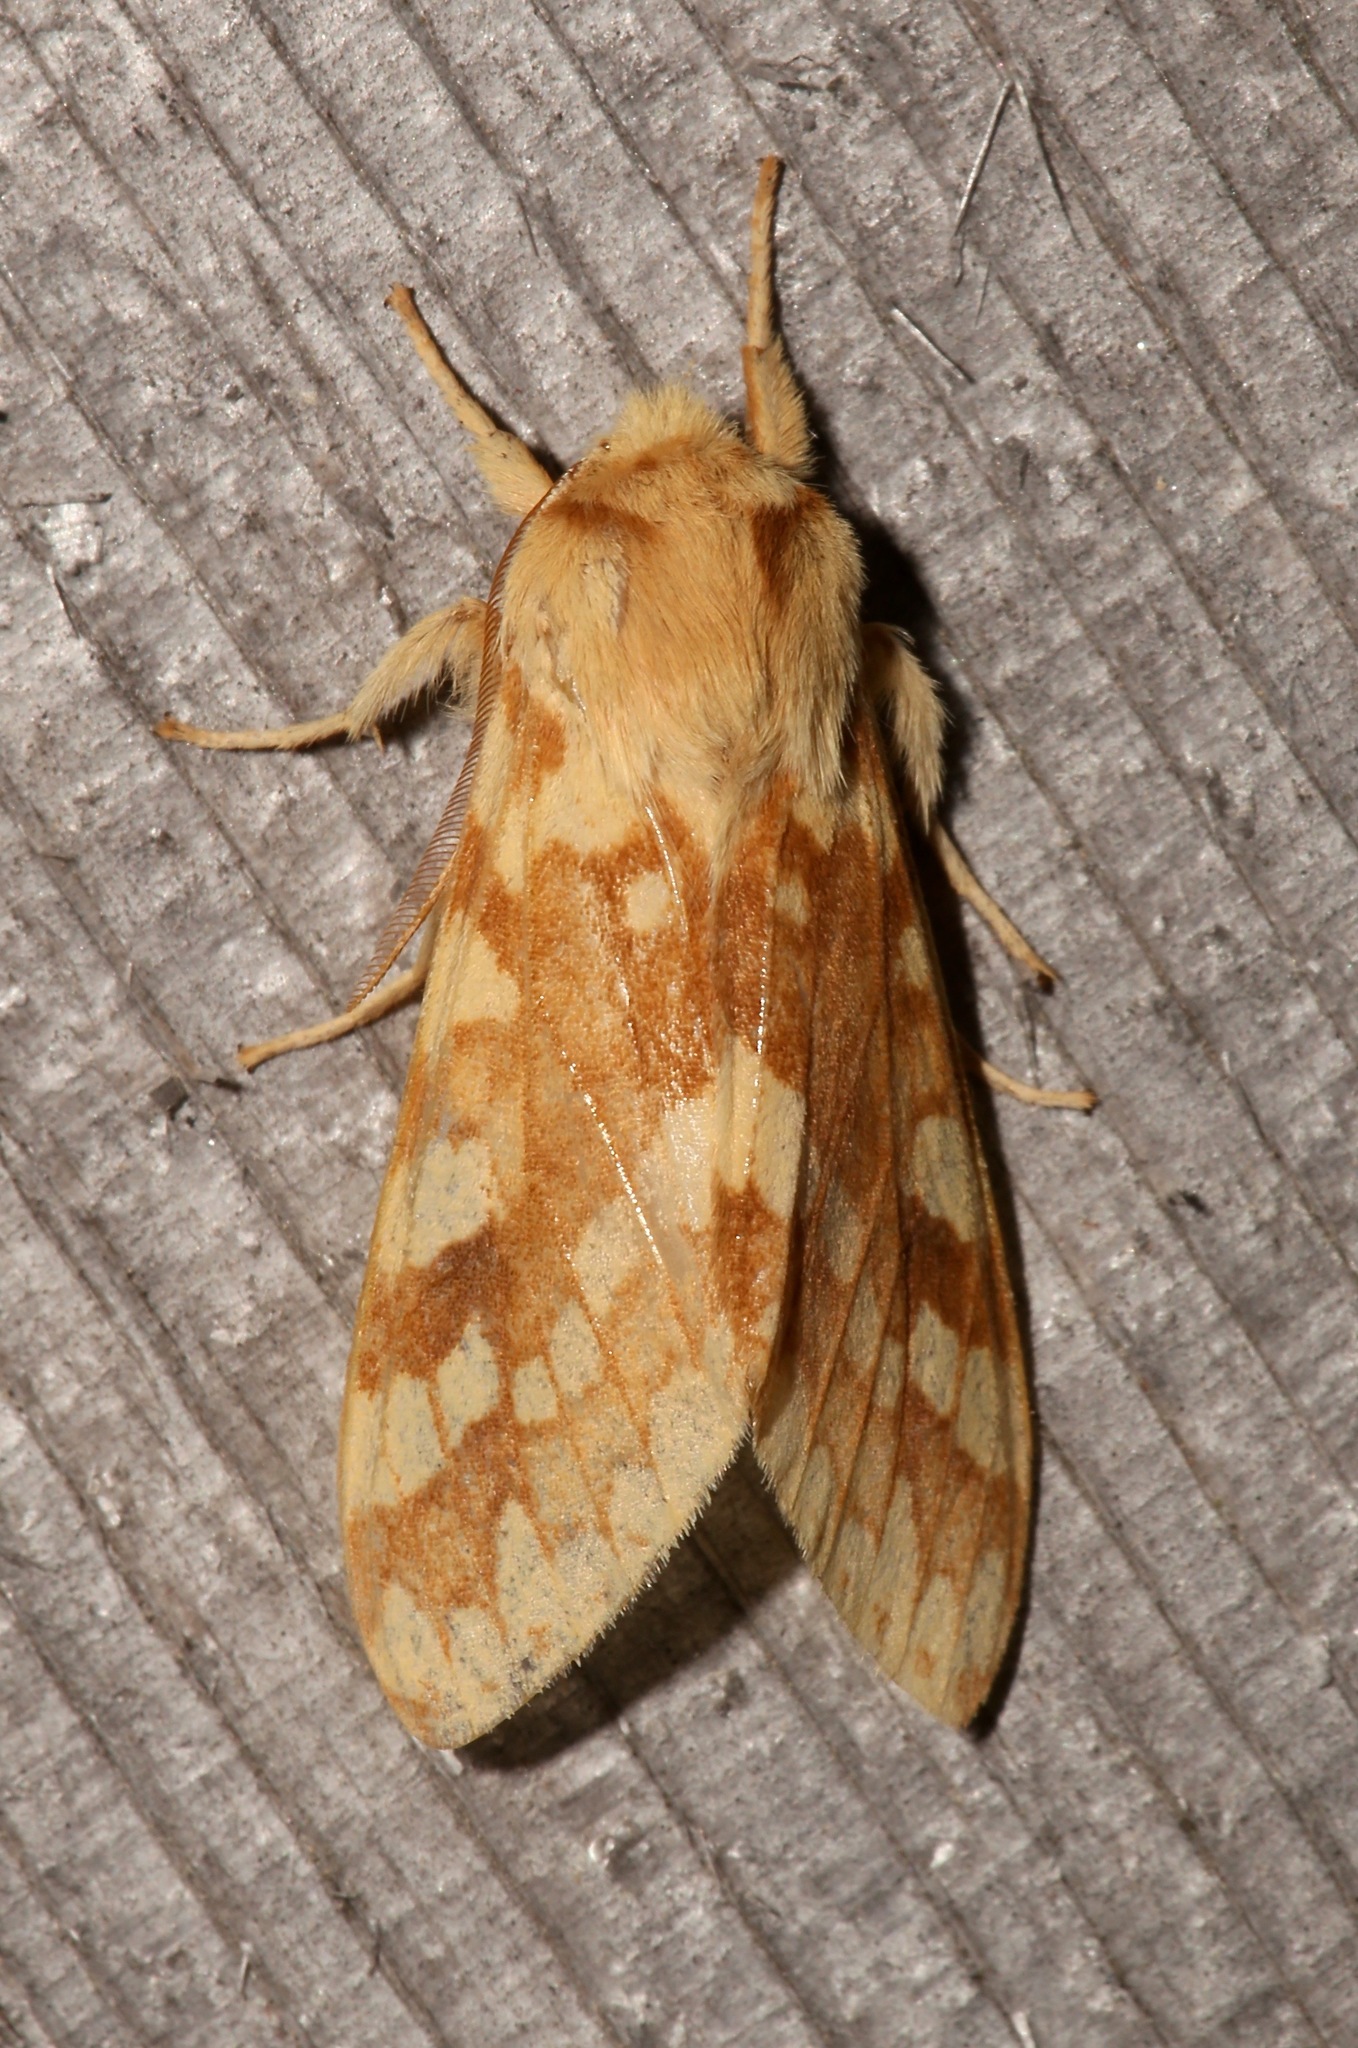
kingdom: Animalia
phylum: Arthropoda
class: Insecta
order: Lepidoptera
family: Erebidae
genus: Lophocampa
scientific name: Lophocampa maculata
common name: Spotted tussock moth
